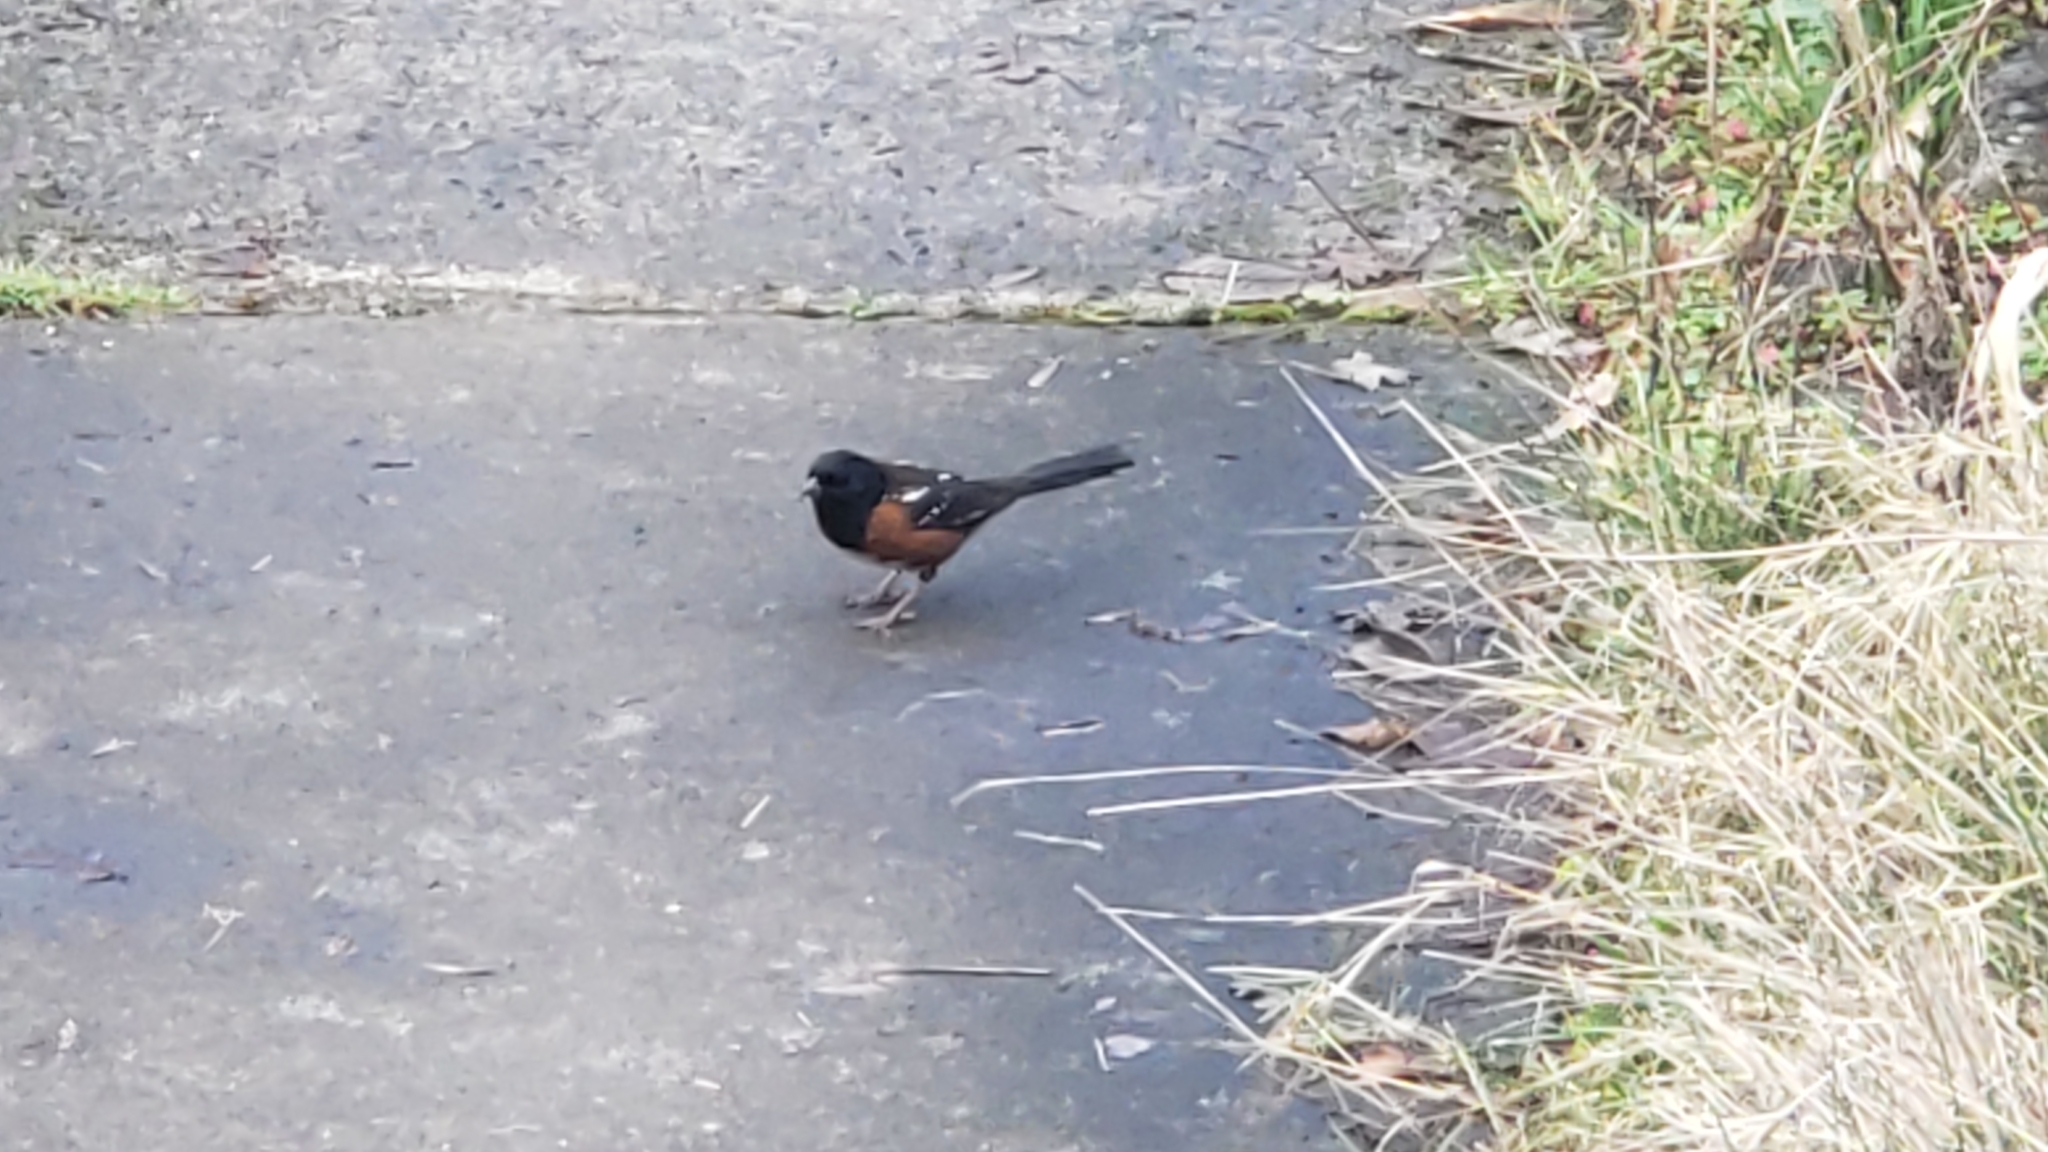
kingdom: Animalia
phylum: Chordata
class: Aves
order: Passeriformes
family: Passerellidae
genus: Pipilo
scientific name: Pipilo maculatus
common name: Spotted towhee
